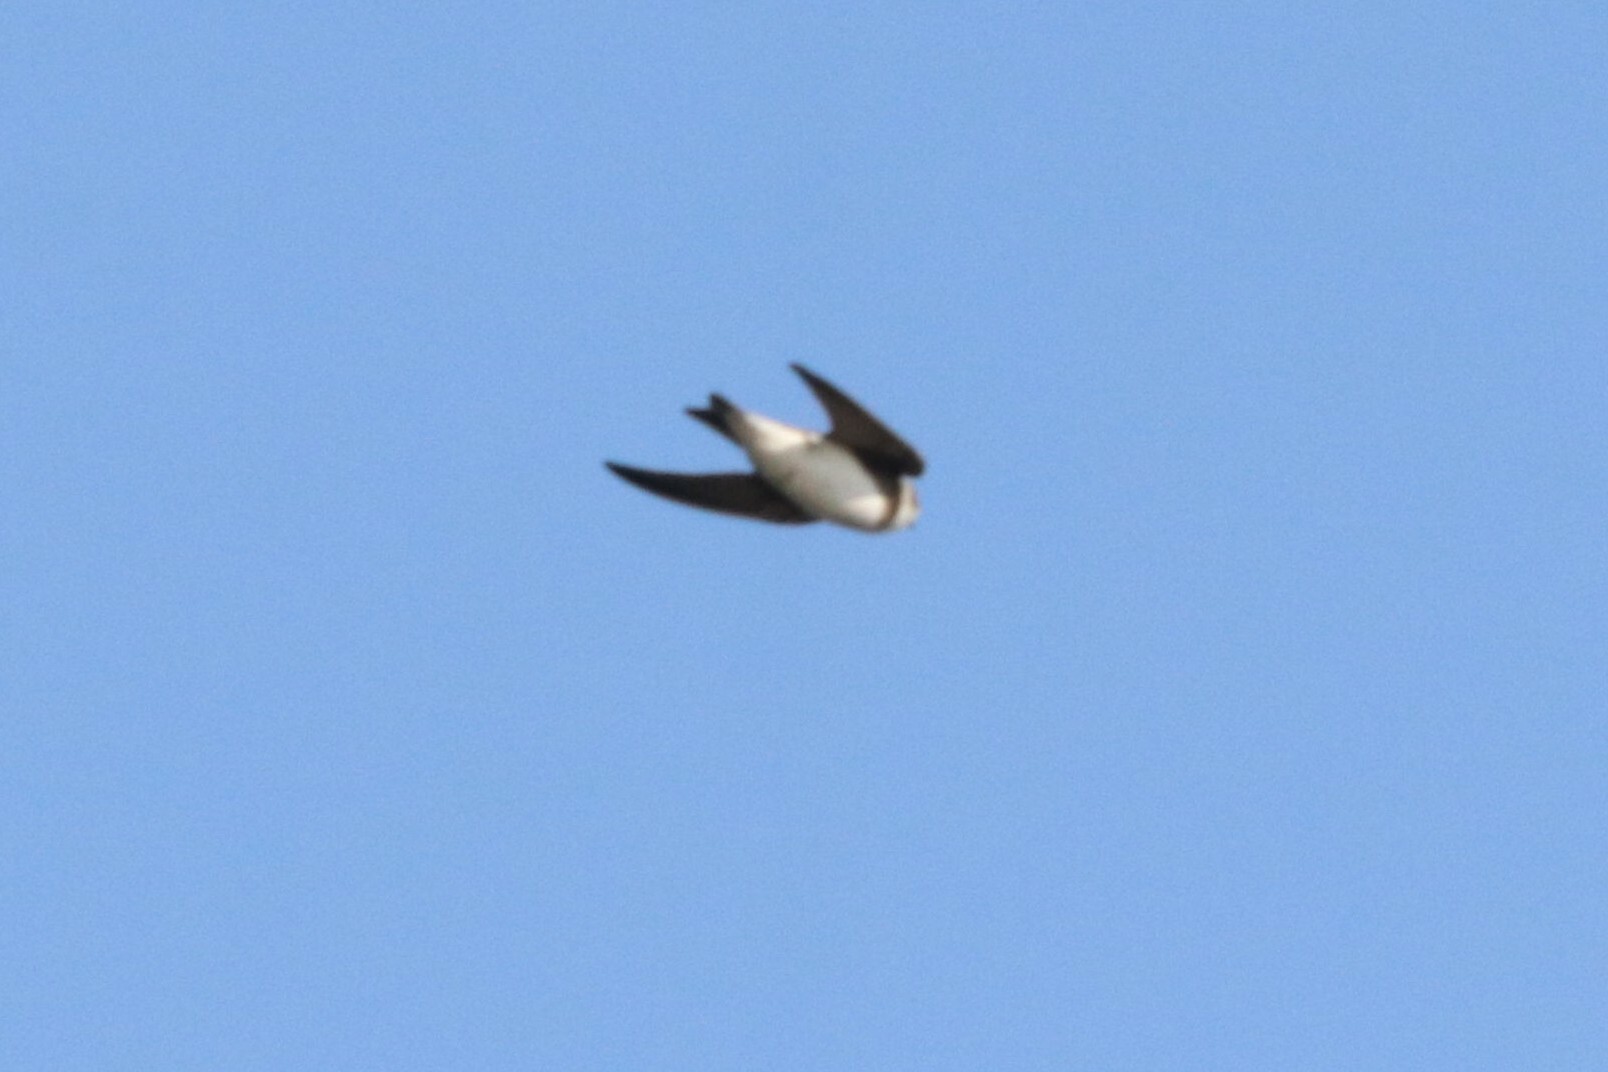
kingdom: Animalia
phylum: Chordata
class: Aves
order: Passeriformes
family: Hirundinidae
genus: Riparia
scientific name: Riparia riparia
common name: Sand martin
